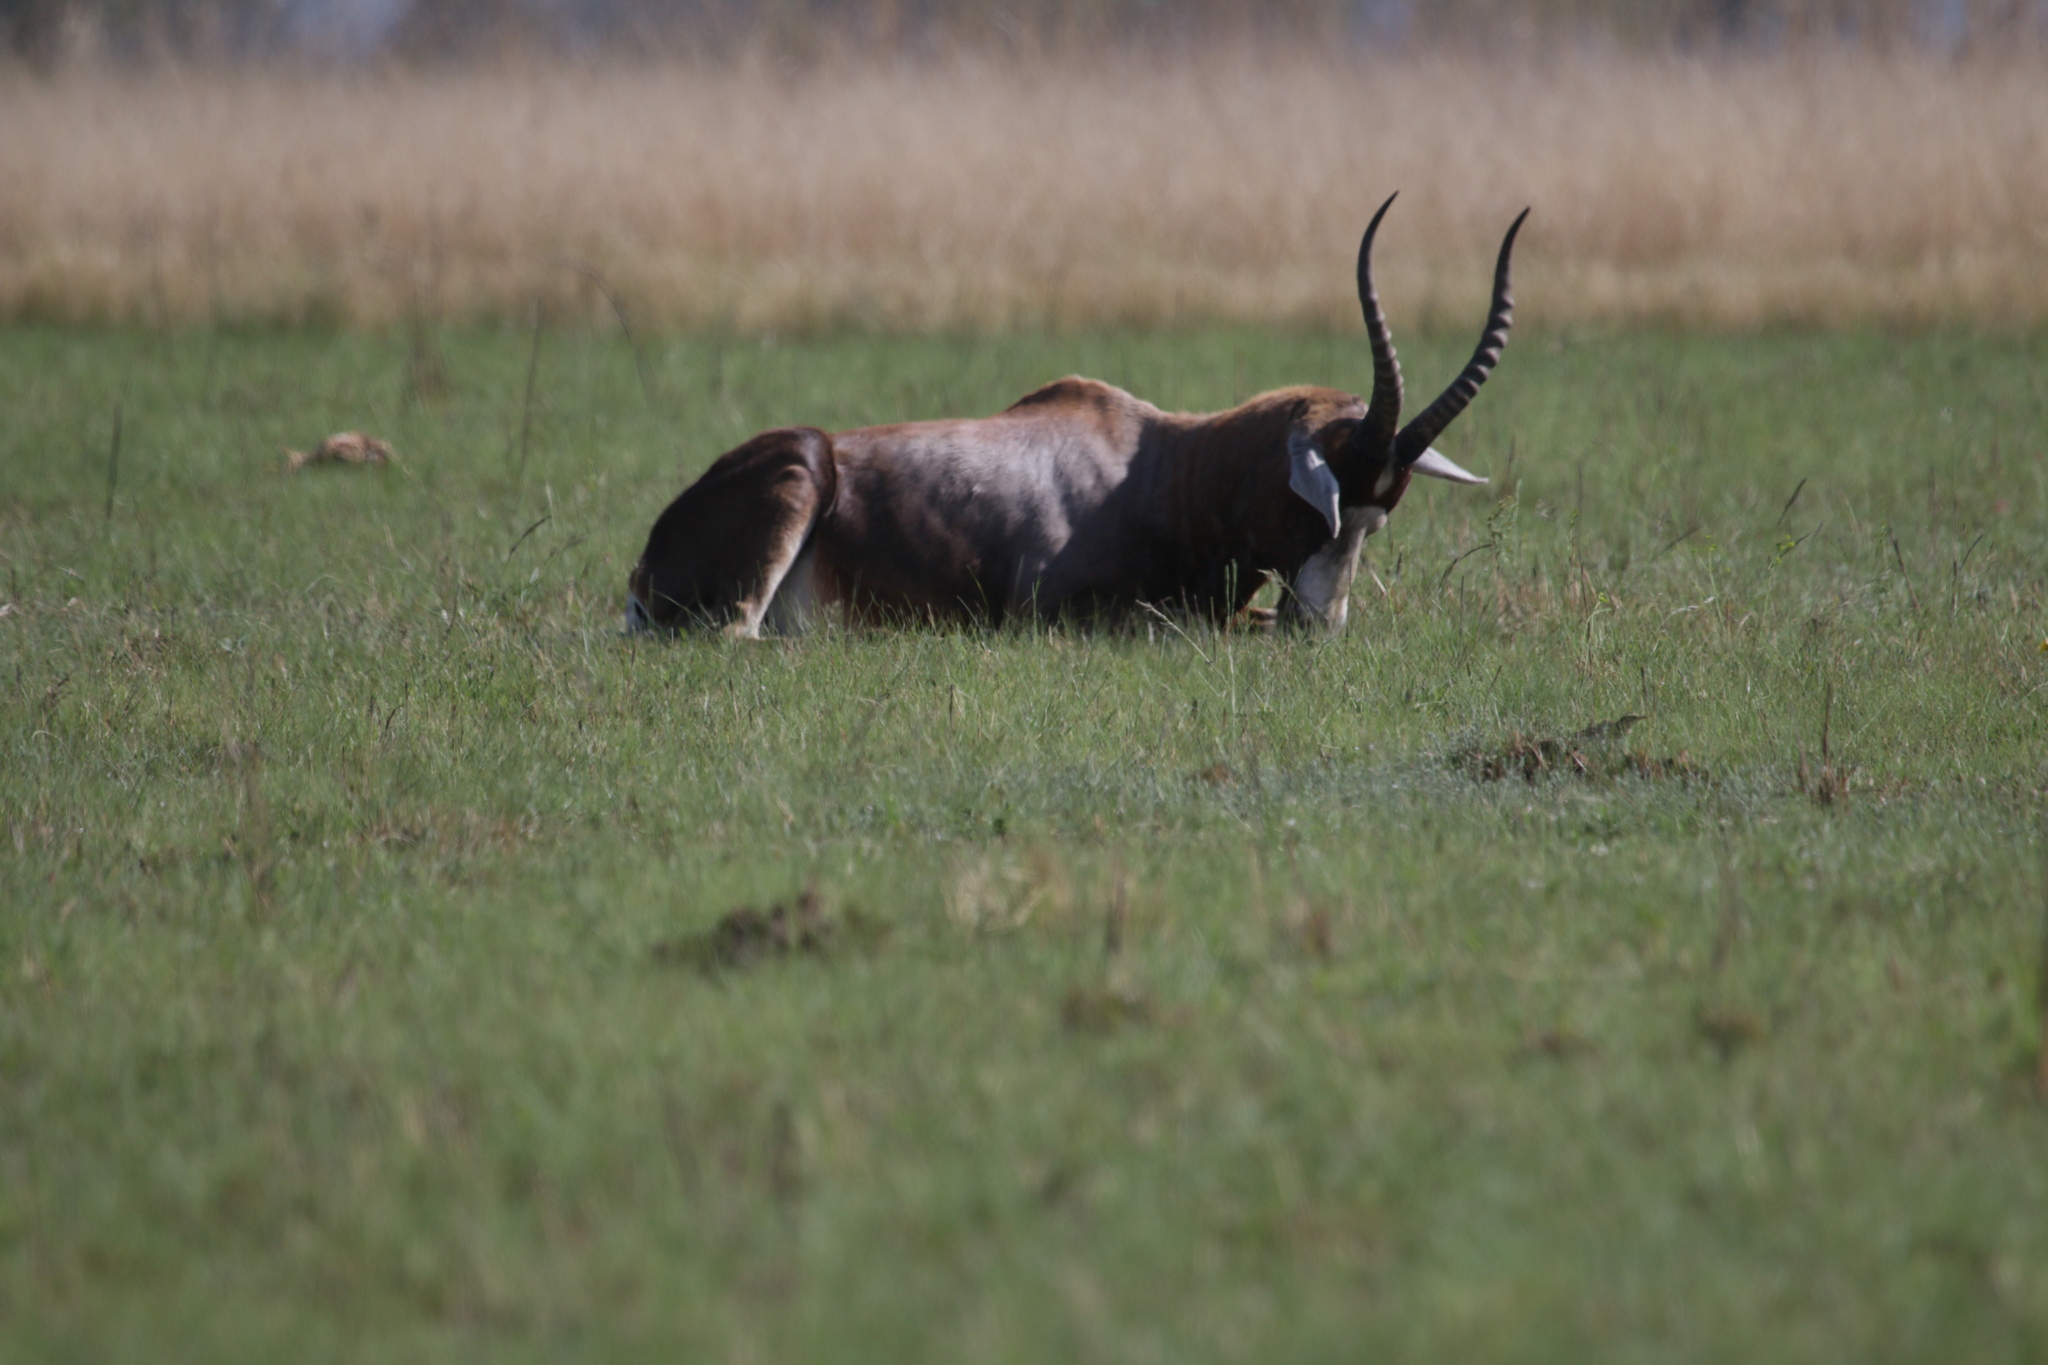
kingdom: Animalia
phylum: Chordata
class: Mammalia
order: Artiodactyla
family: Bovidae
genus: Damaliscus
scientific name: Damaliscus pygargus
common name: Bontebok
